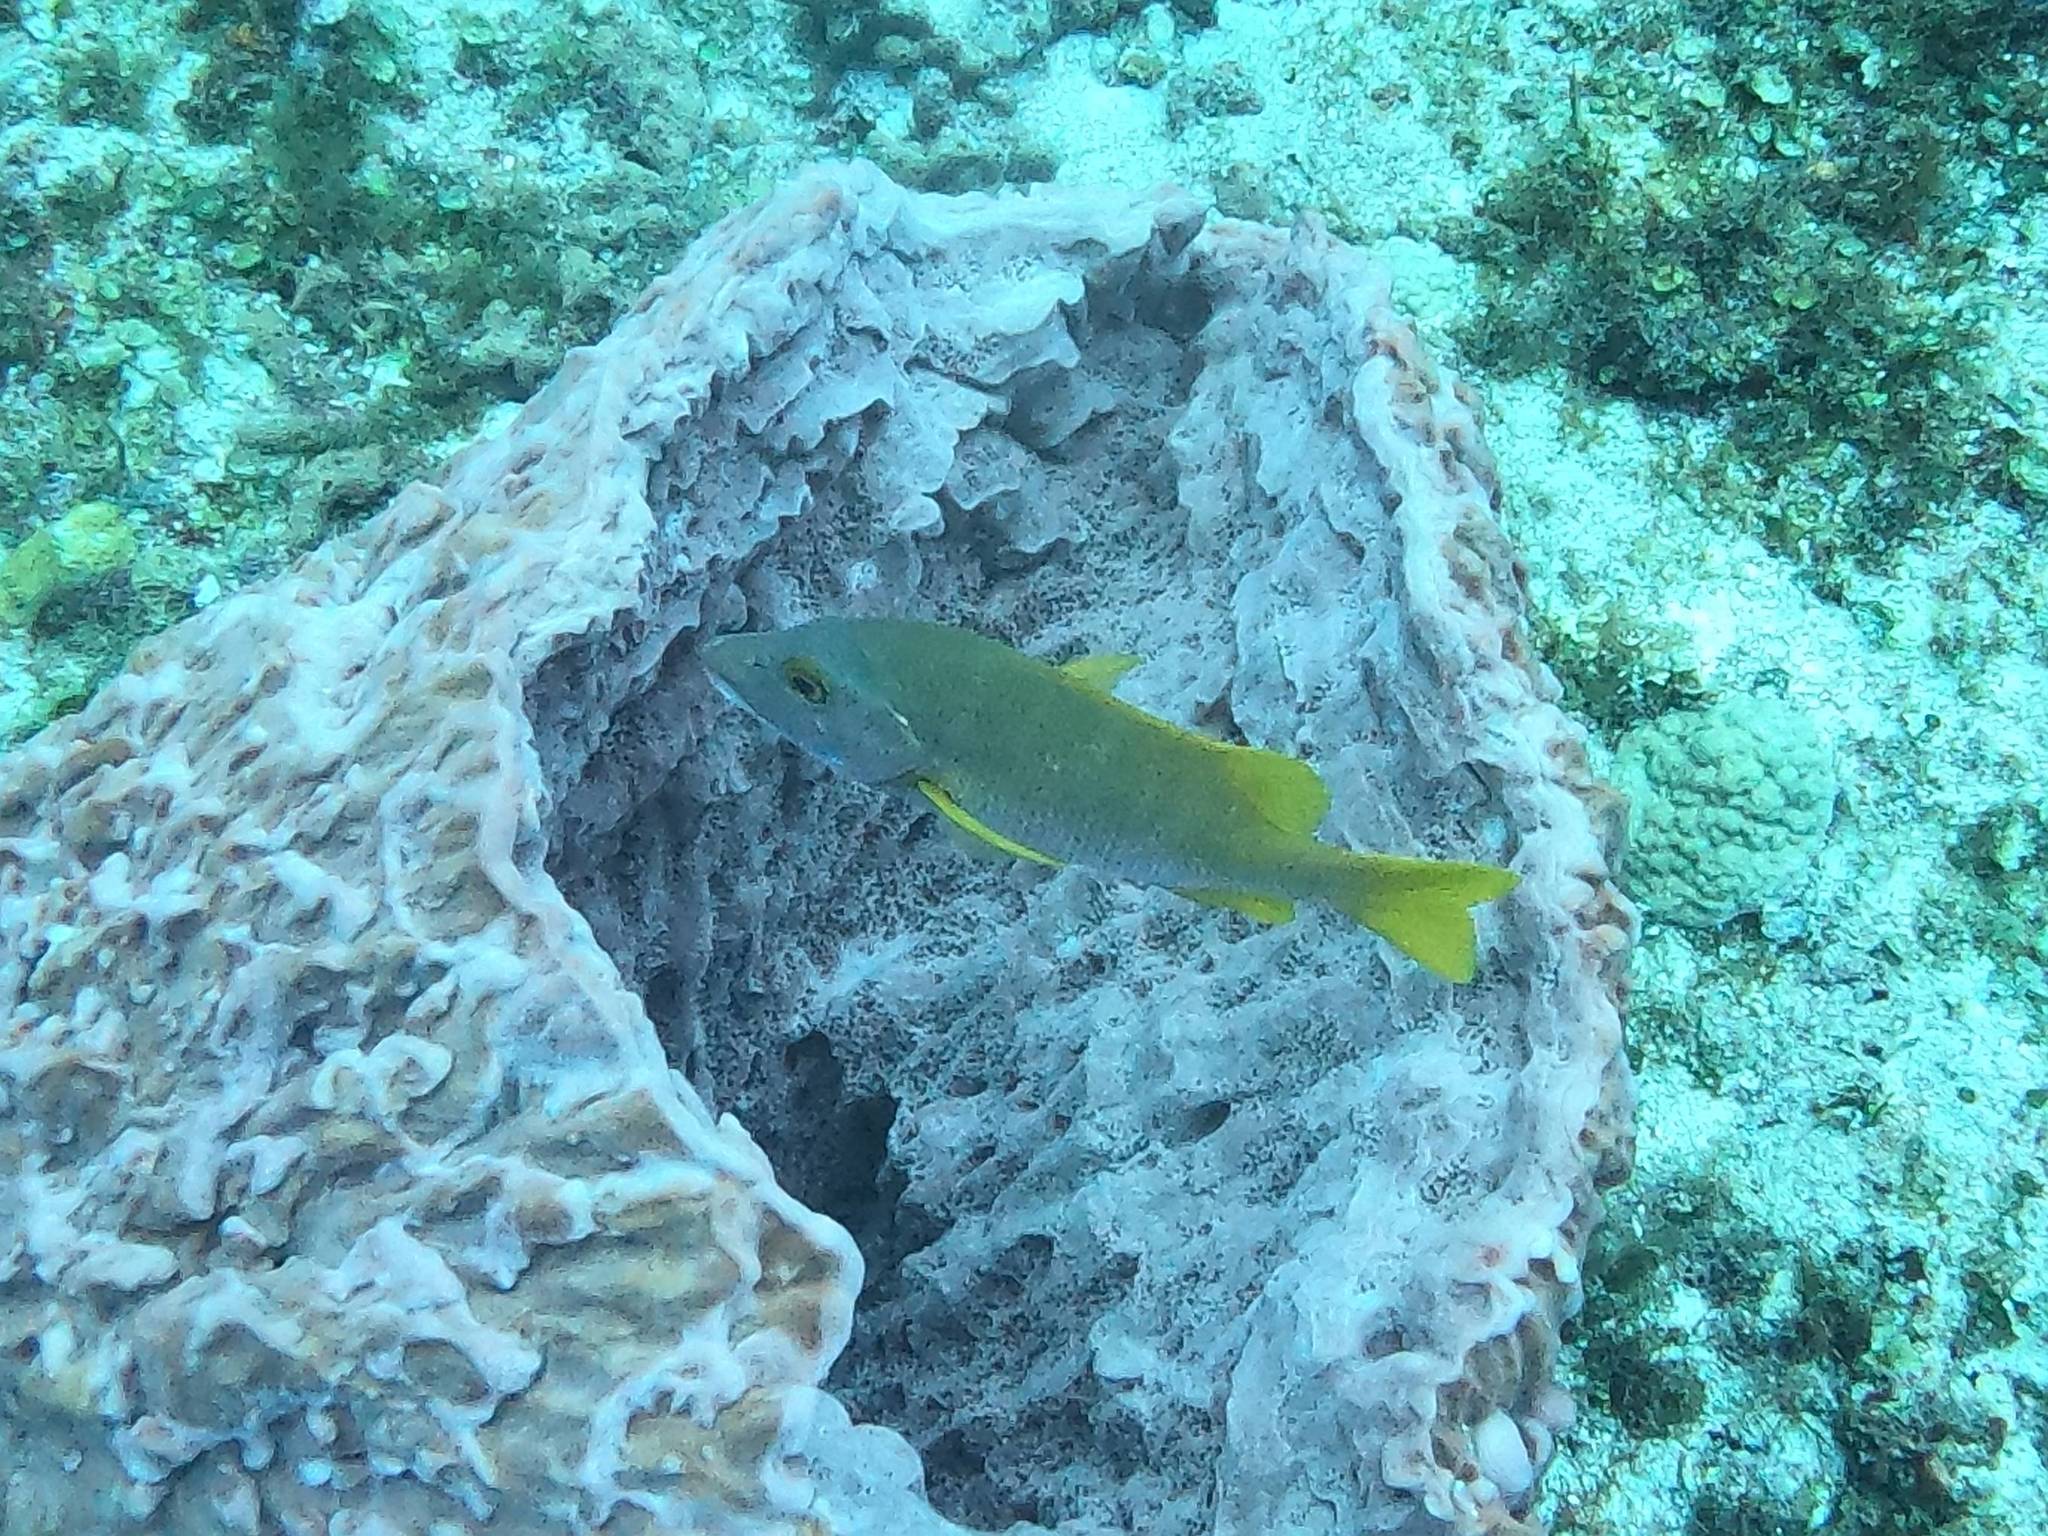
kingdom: Animalia
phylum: Chordata
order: Perciformes
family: Lutjanidae
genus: Lutjanus
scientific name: Lutjanus apodus
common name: Schoolmaster
